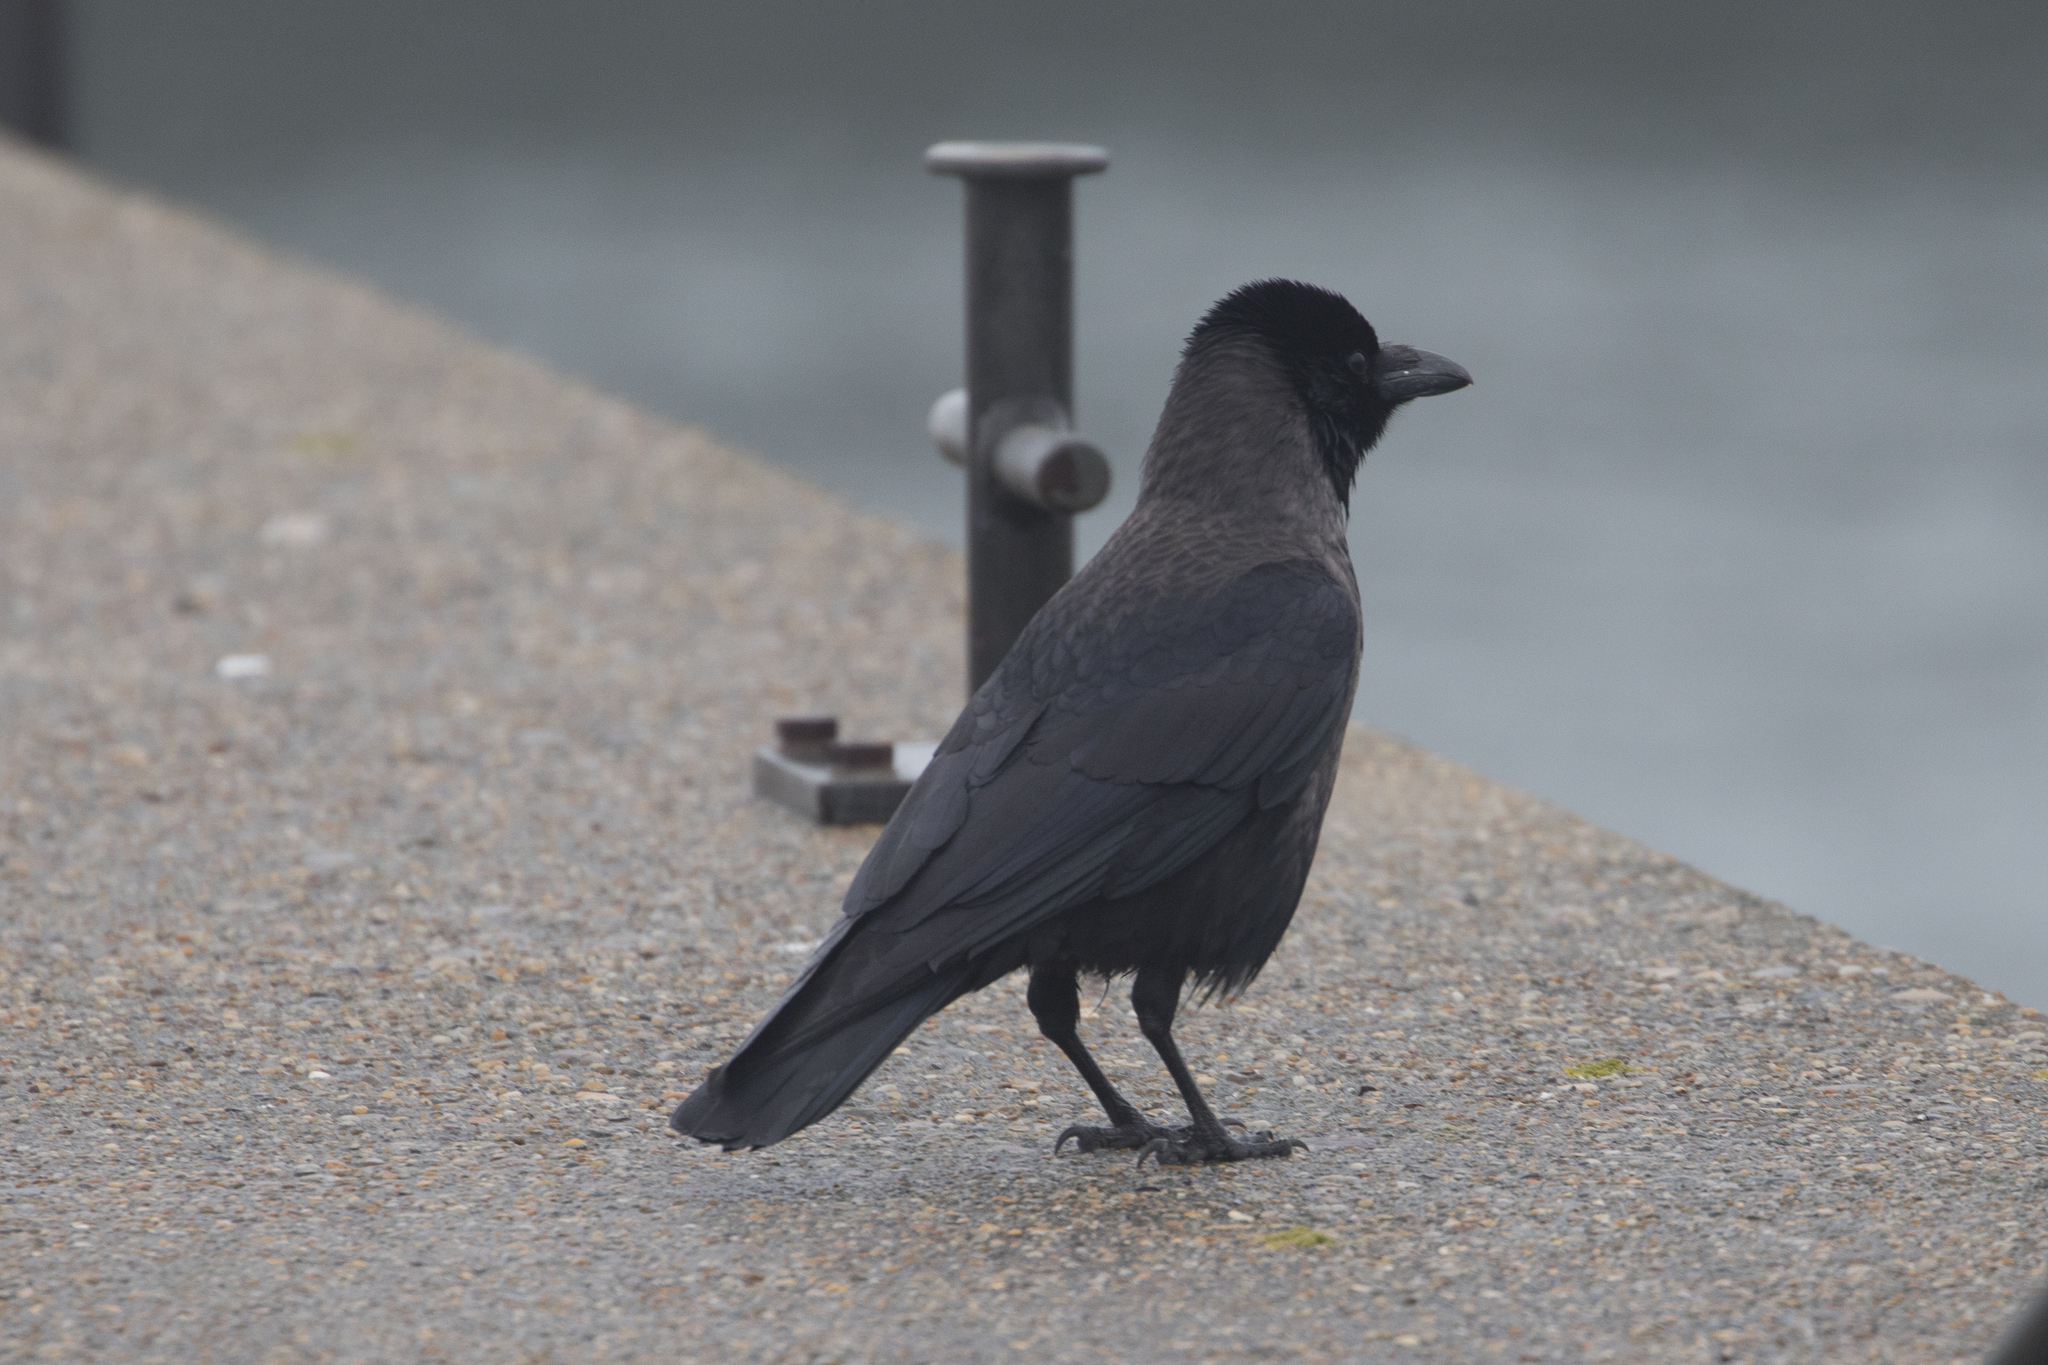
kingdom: Animalia
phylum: Chordata
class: Aves
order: Passeriformes
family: Corvidae
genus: Corvus
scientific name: Corvus
